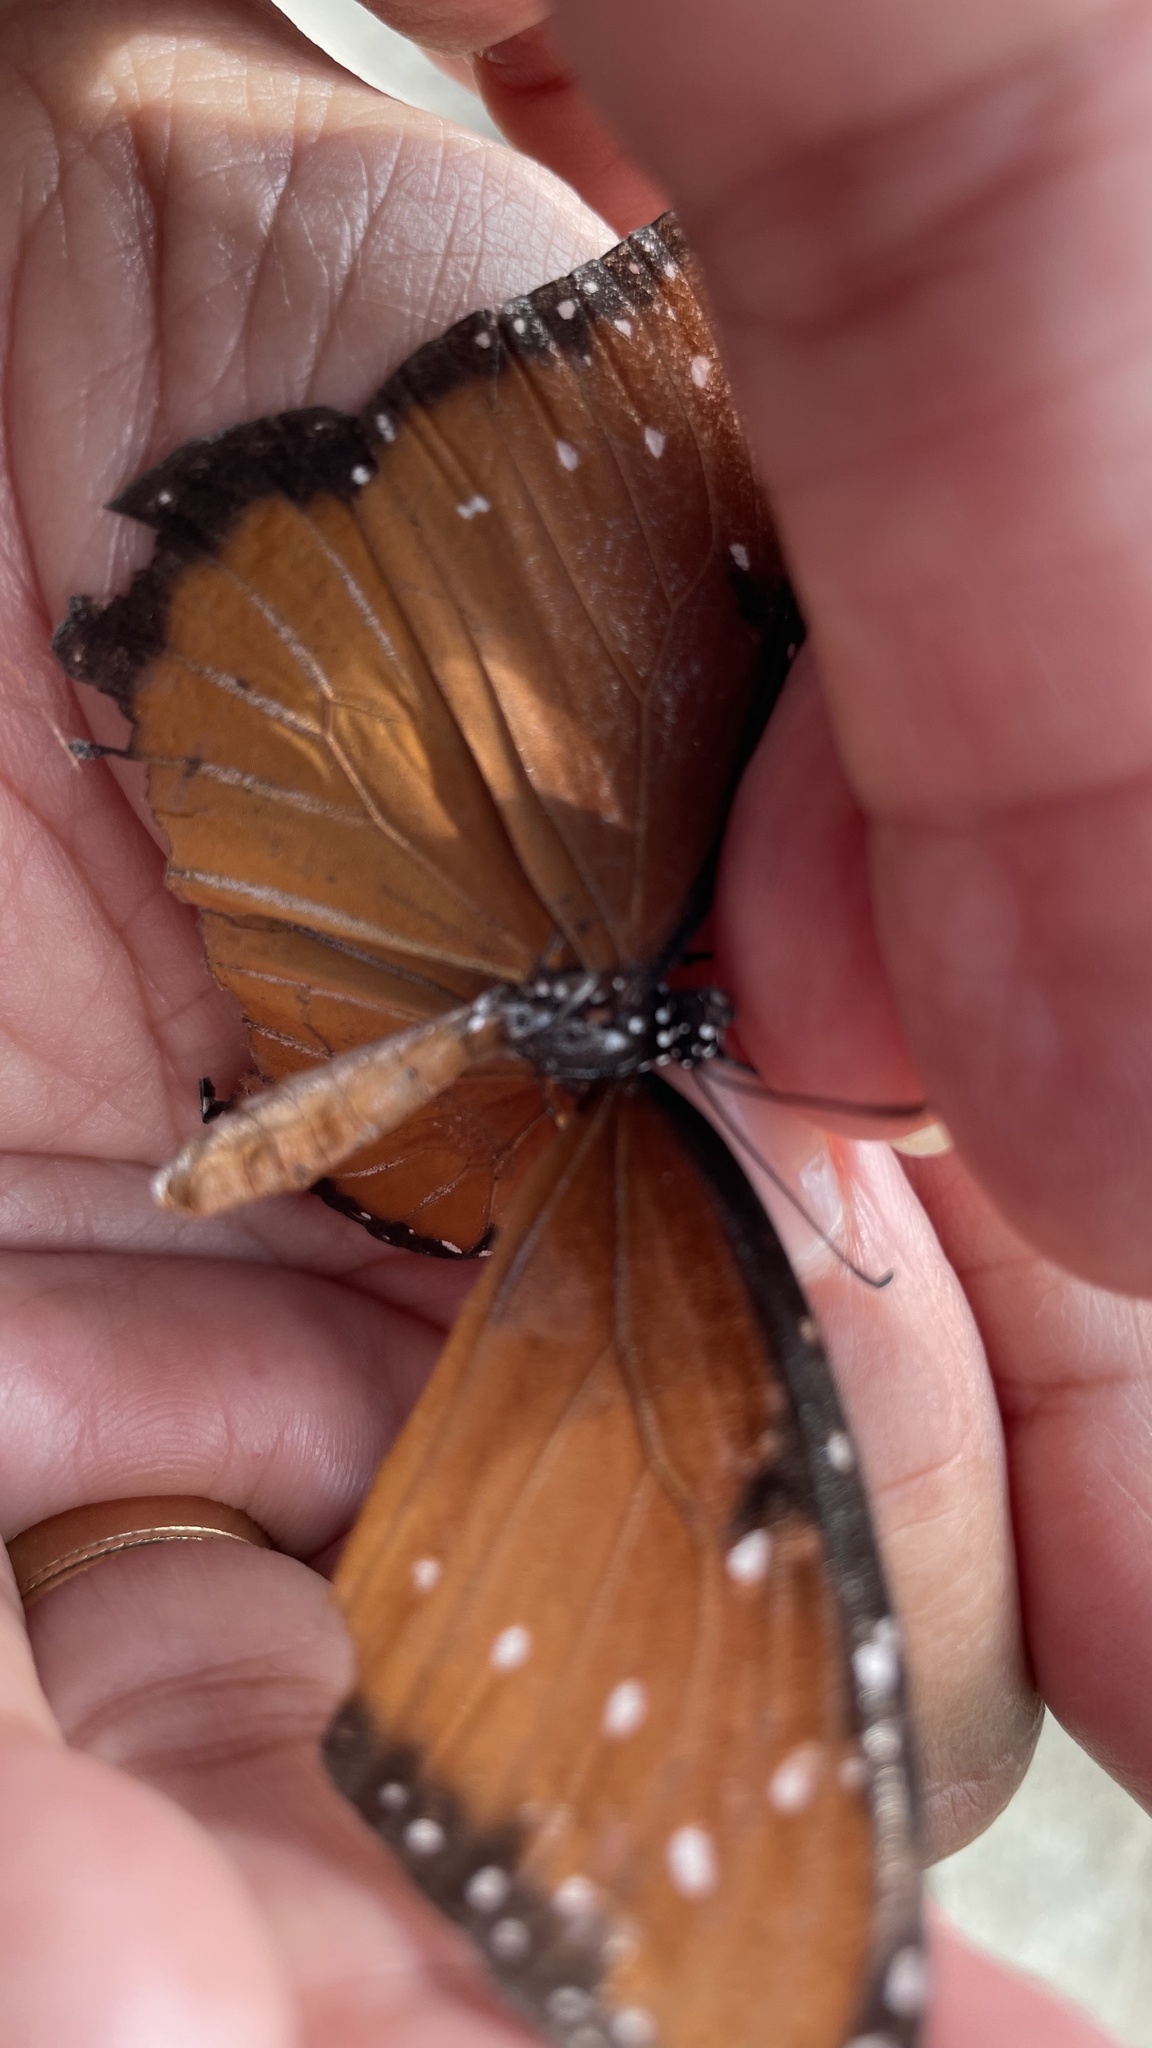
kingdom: Animalia
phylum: Arthropoda
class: Insecta
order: Lepidoptera
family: Nymphalidae
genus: Danaus
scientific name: Danaus gilippus
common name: Queen
